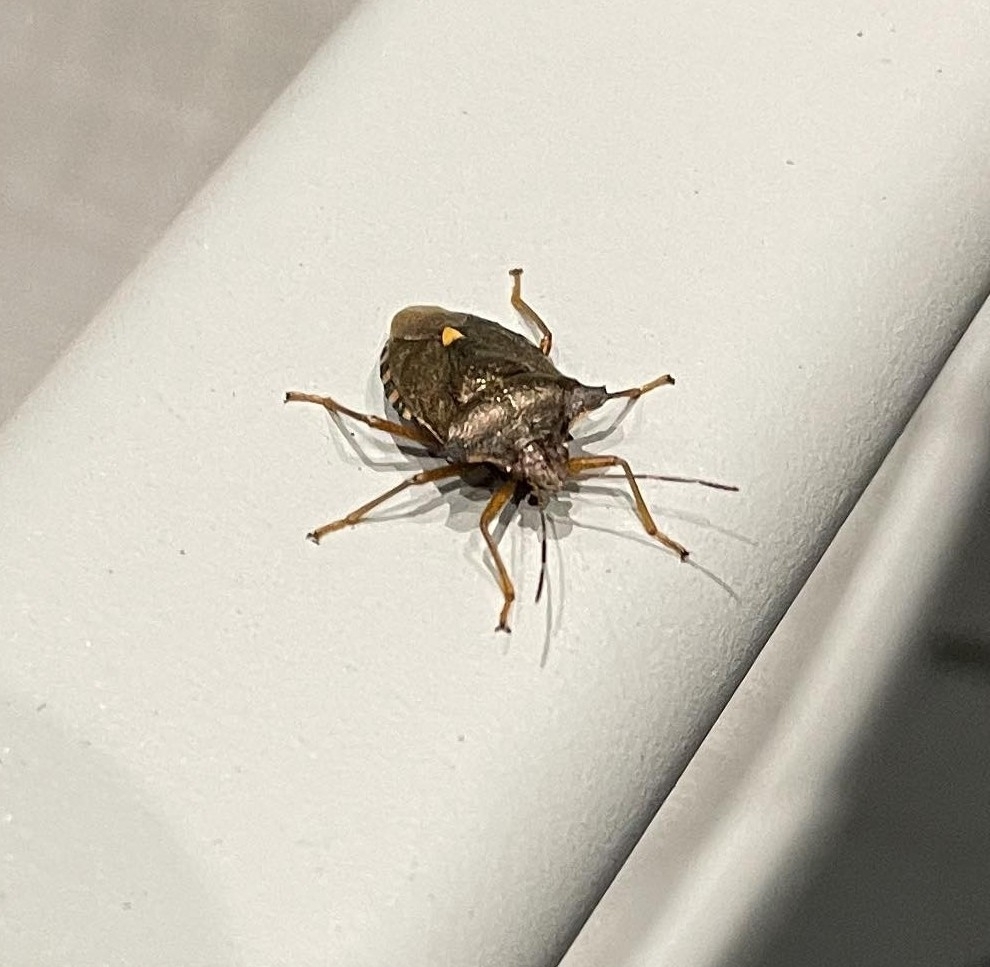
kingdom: Animalia
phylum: Arthropoda
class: Insecta
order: Hemiptera
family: Pentatomidae
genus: Pentatoma
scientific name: Pentatoma rufipes
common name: Forest bug
